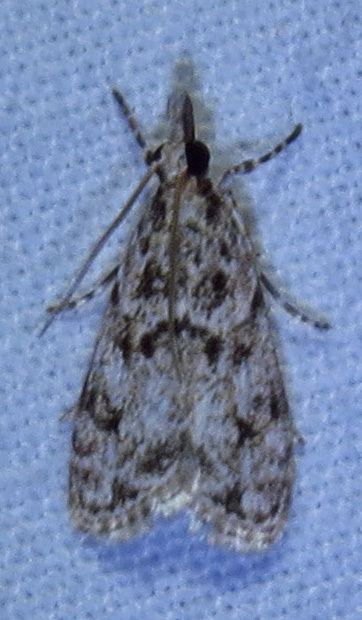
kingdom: Animalia
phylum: Arthropoda
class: Insecta
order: Lepidoptera
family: Crambidae
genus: Eudonia
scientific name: Eudonia heterosalis
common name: Mcdunnough's eudonia
